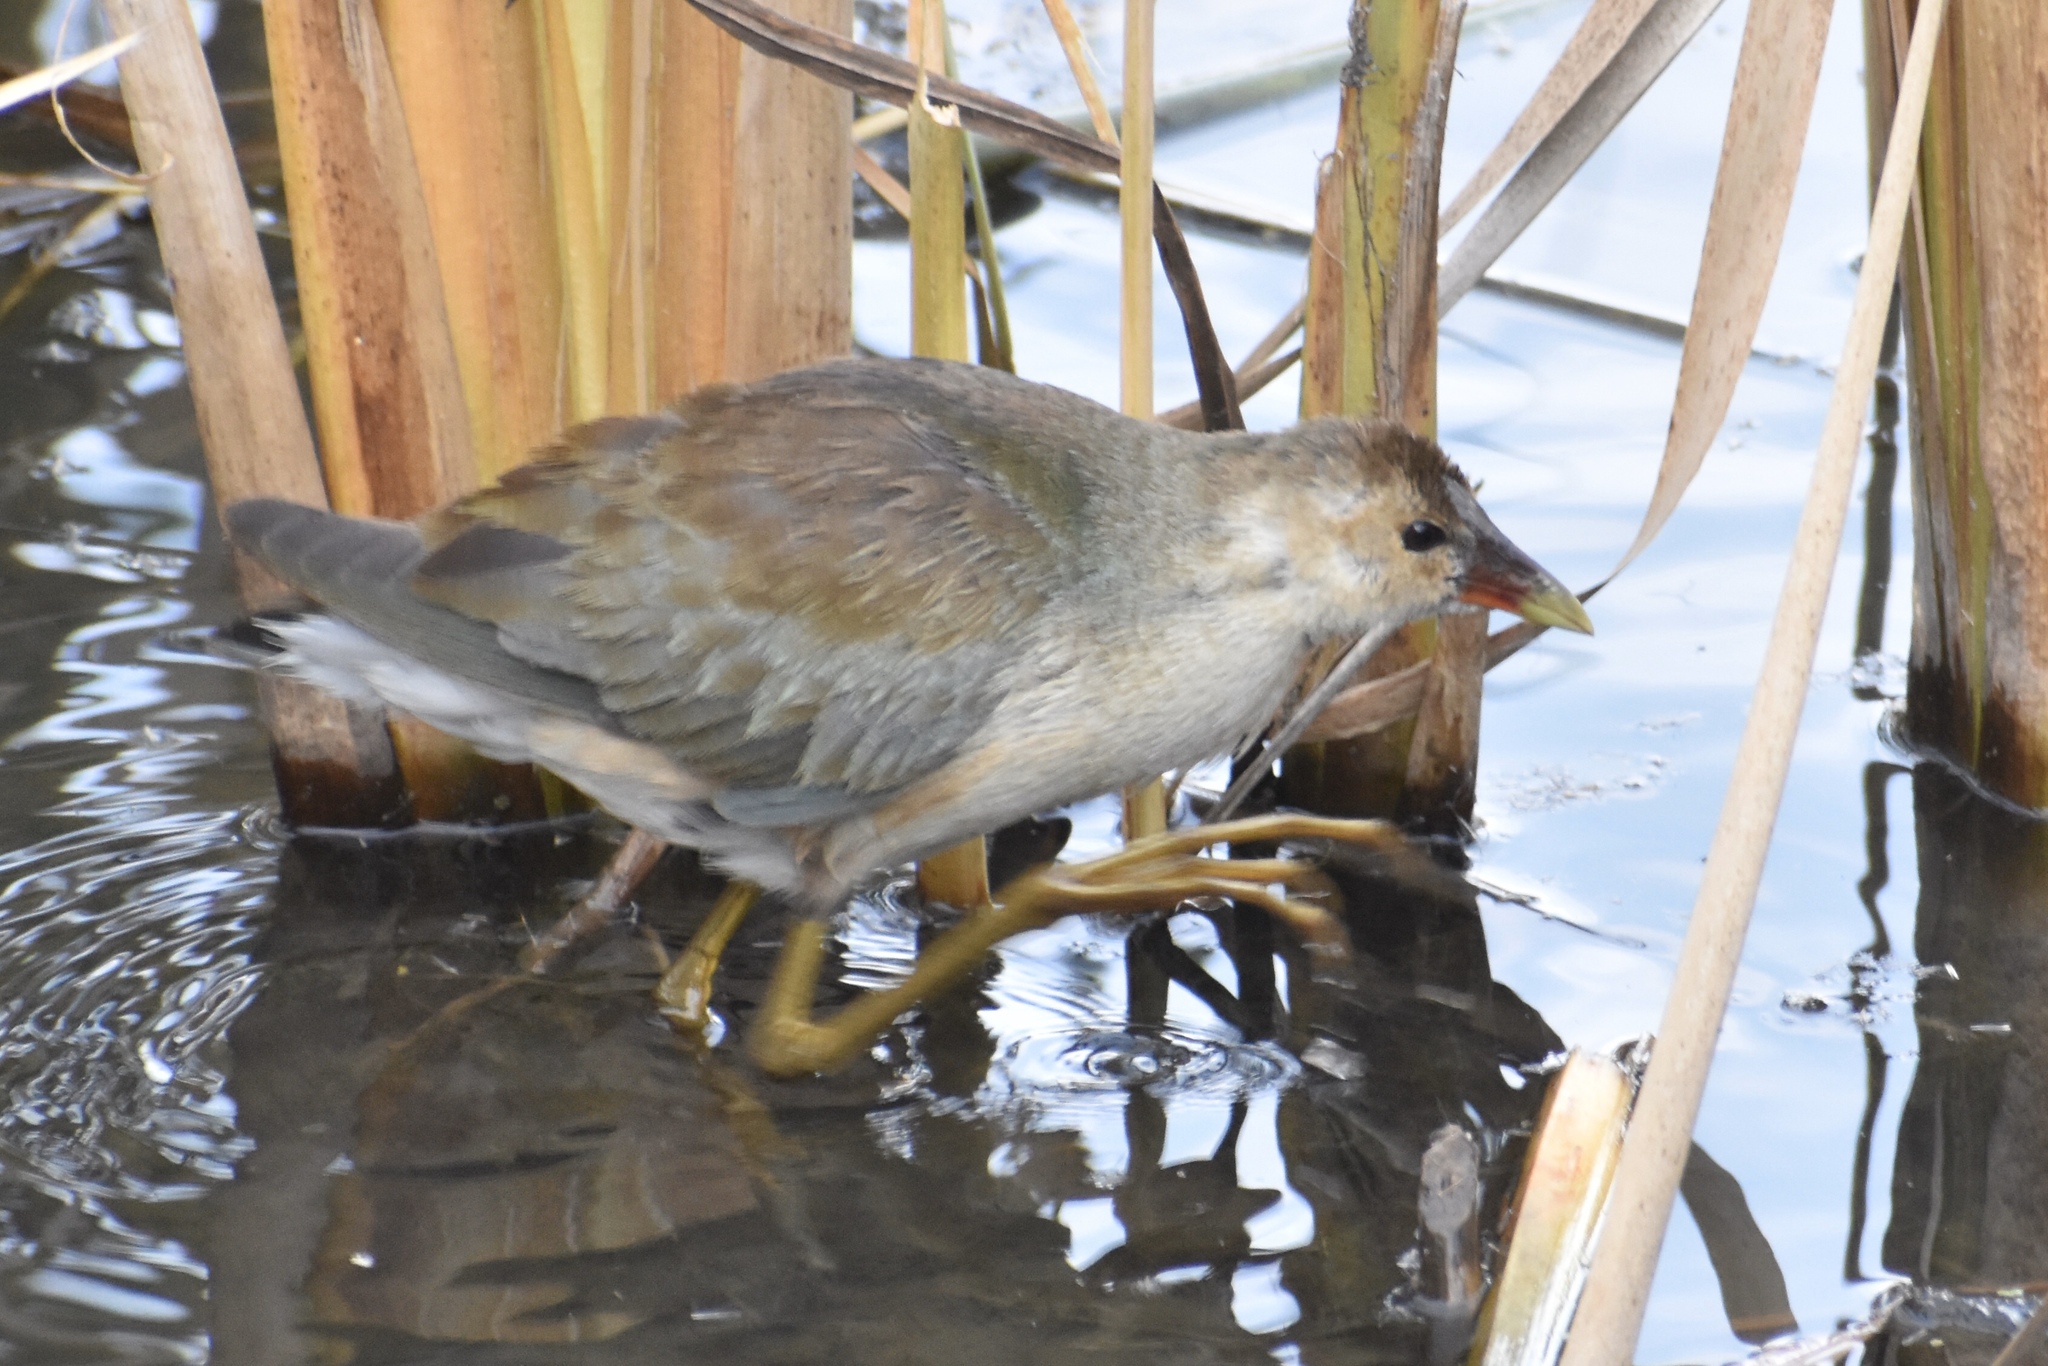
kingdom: Animalia
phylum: Chordata
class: Aves
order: Gruiformes
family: Rallidae
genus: Porphyrio
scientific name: Porphyrio martinica
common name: Purple gallinule
